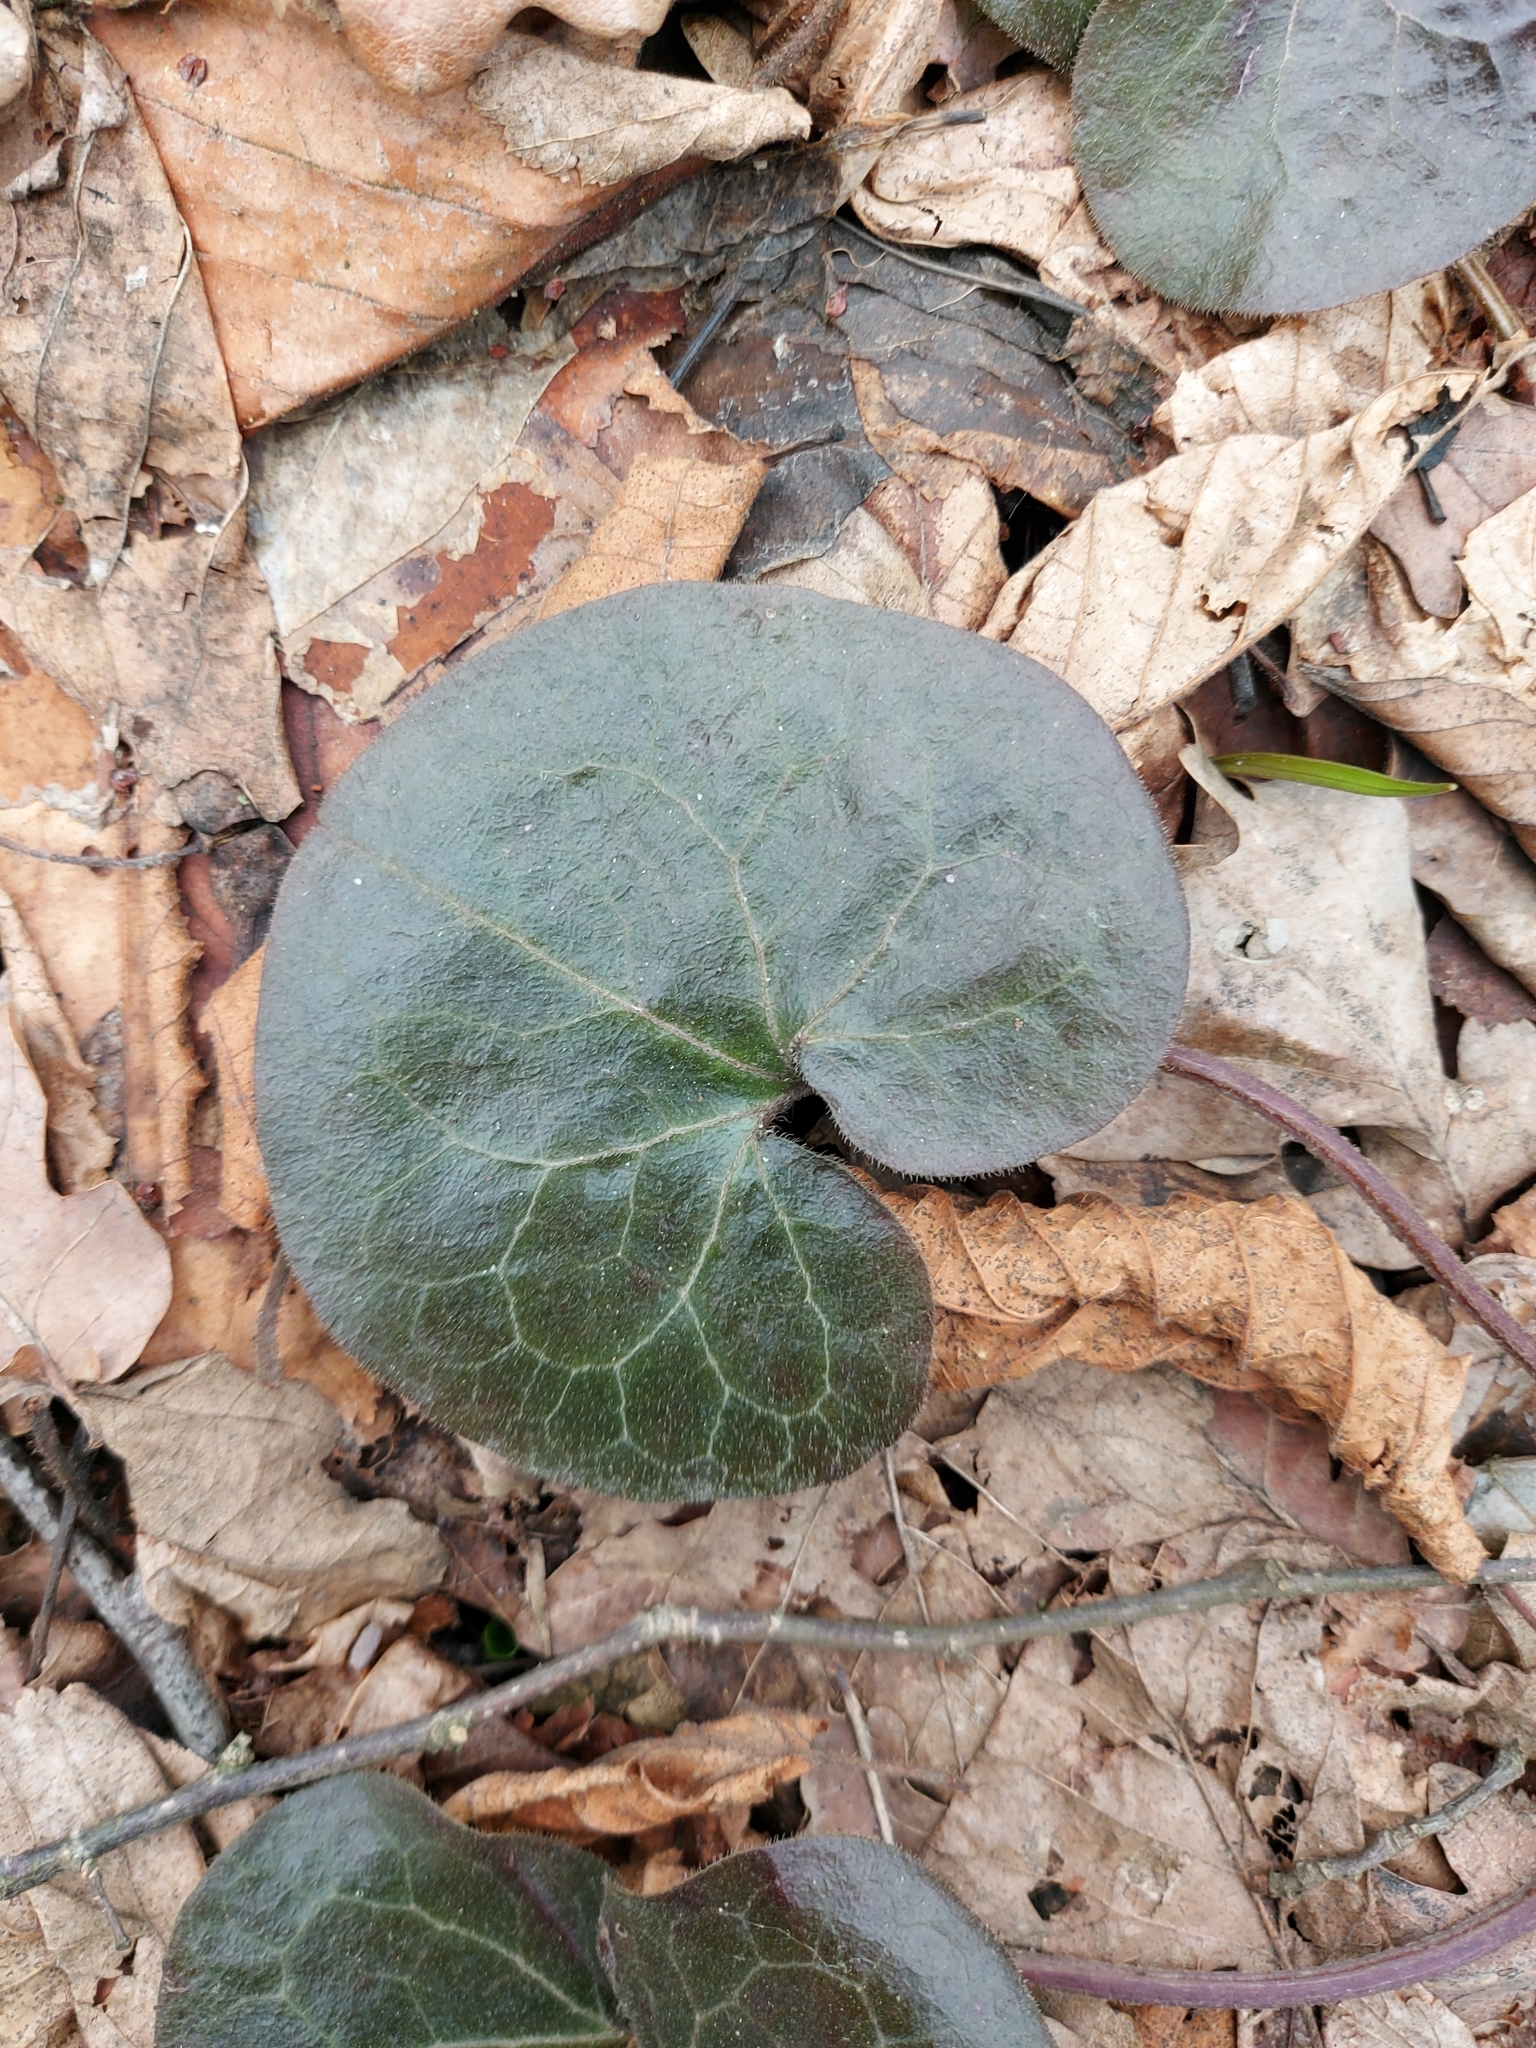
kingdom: Plantae
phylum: Tracheophyta
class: Magnoliopsida
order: Piperales
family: Aristolochiaceae
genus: Asarum
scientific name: Asarum europaeum
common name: Asarabacca
